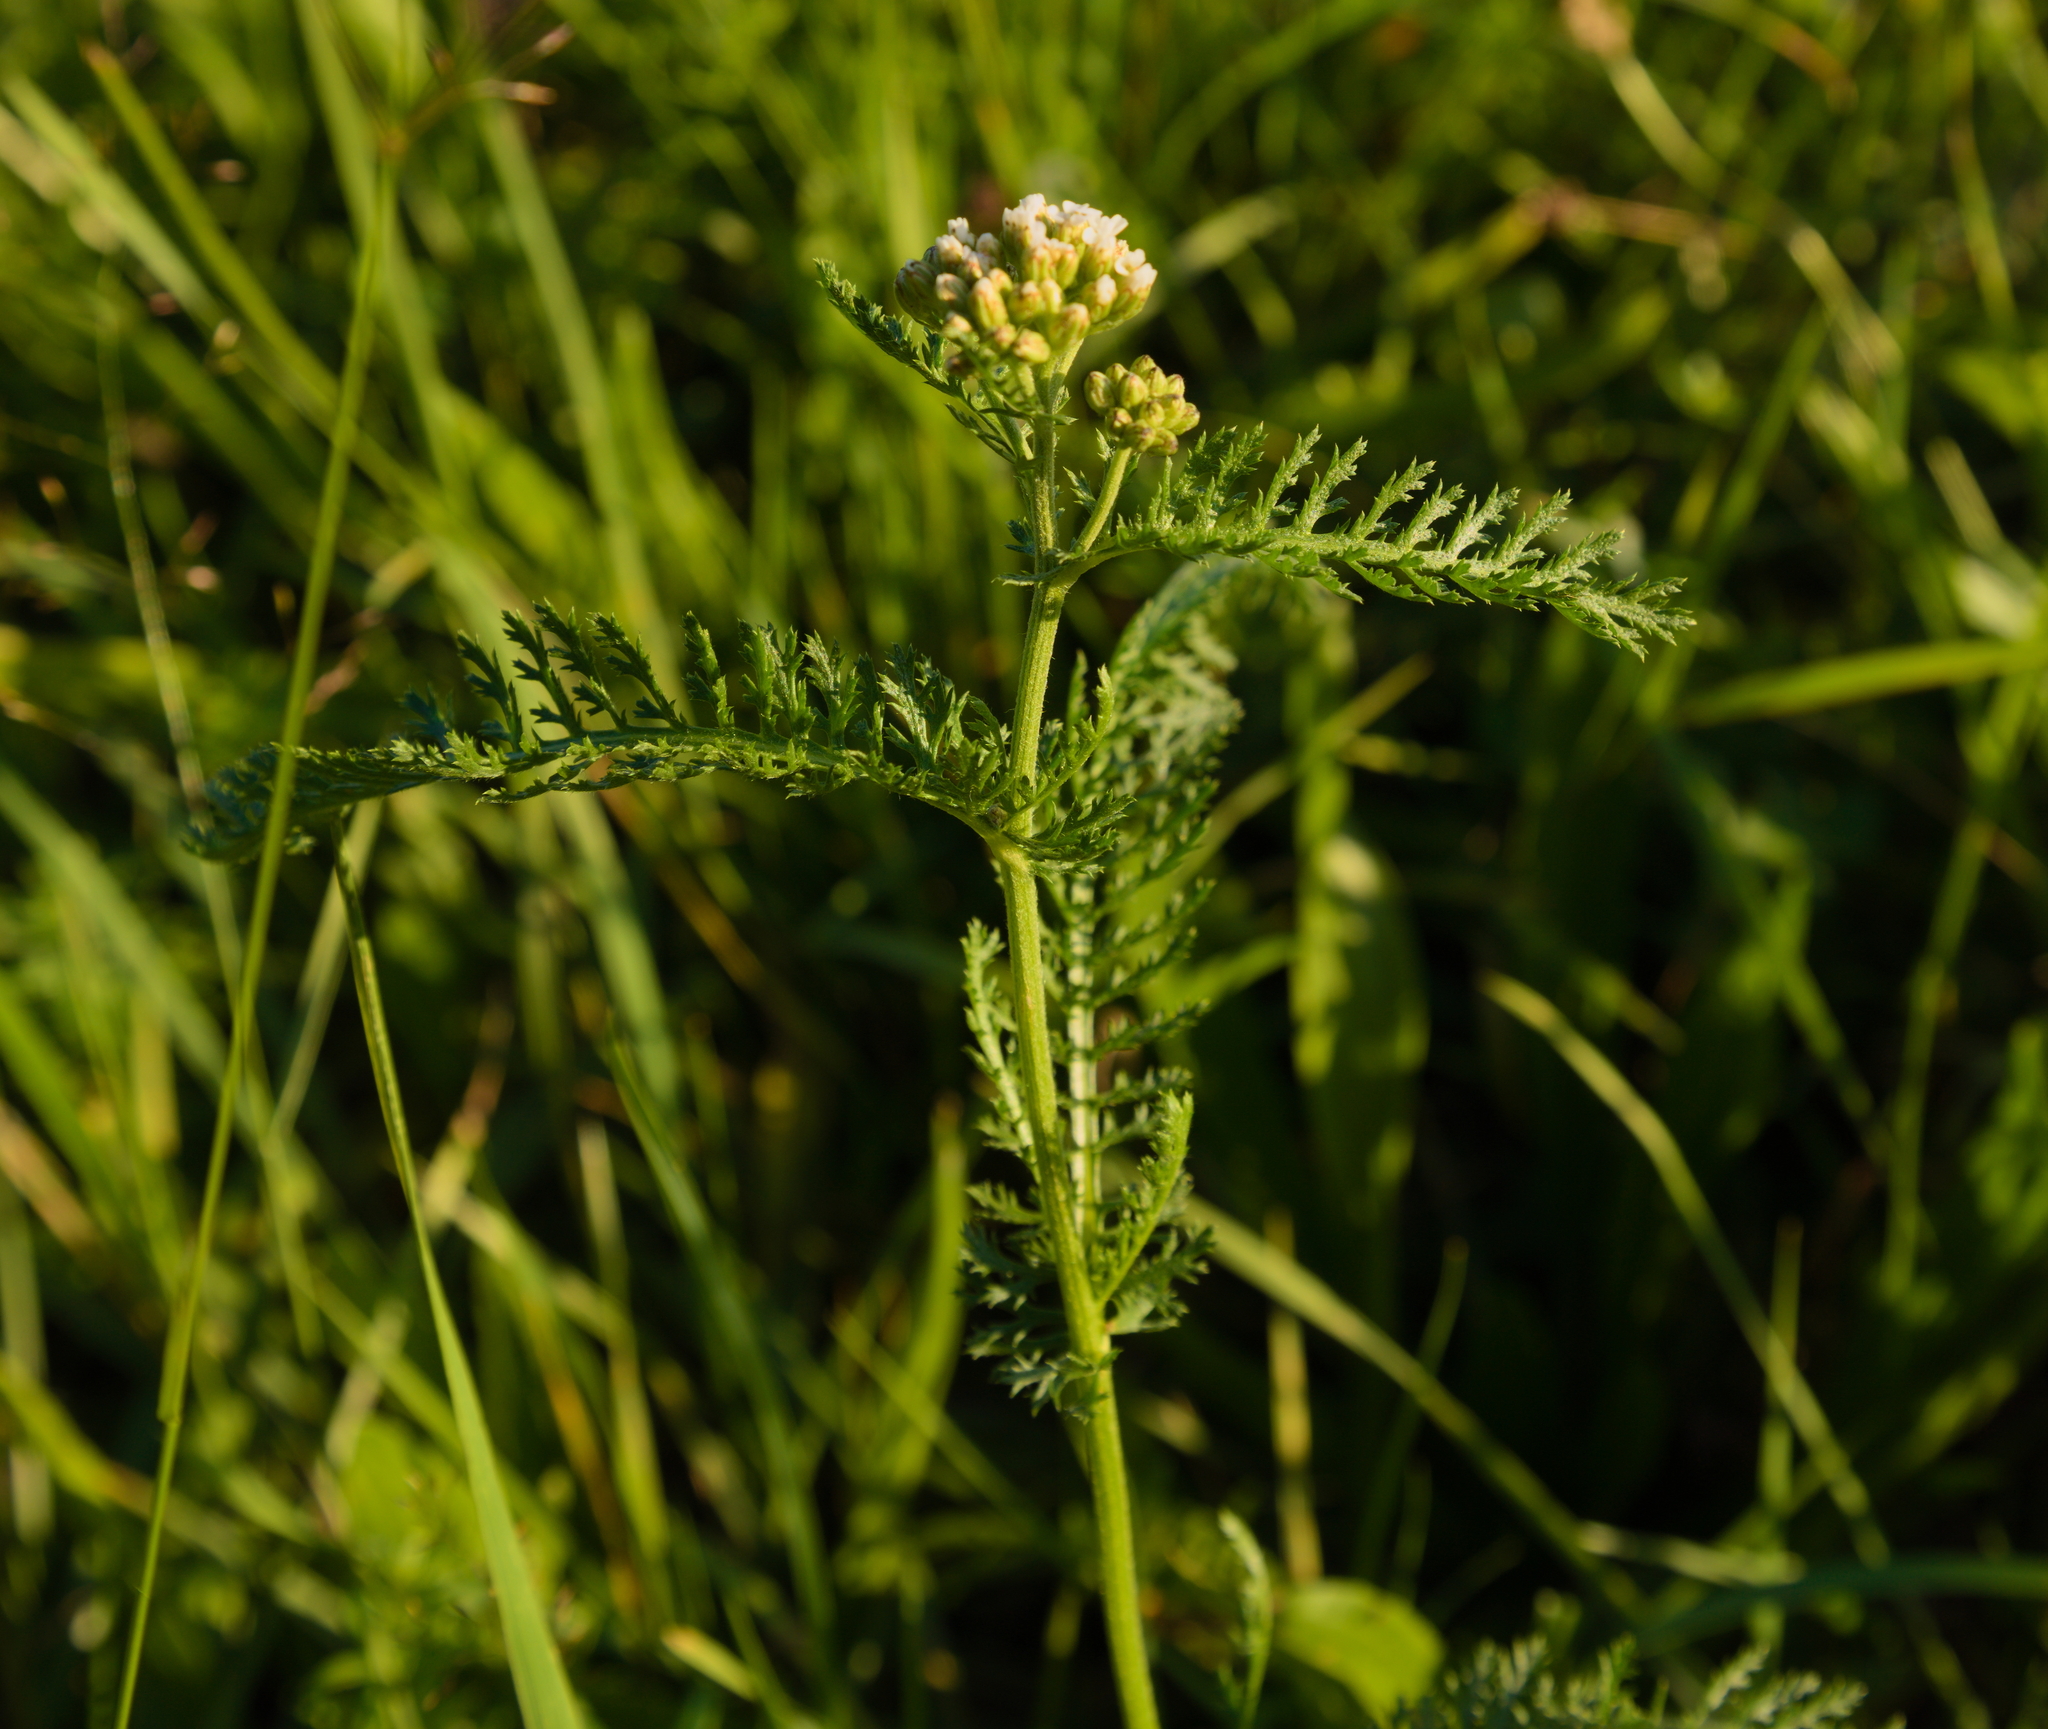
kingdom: Plantae
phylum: Tracheophyta
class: Magnoliopsida
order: Asterales
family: Asteraceae
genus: Achillea
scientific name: Achillea millefolium
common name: Yarrow
